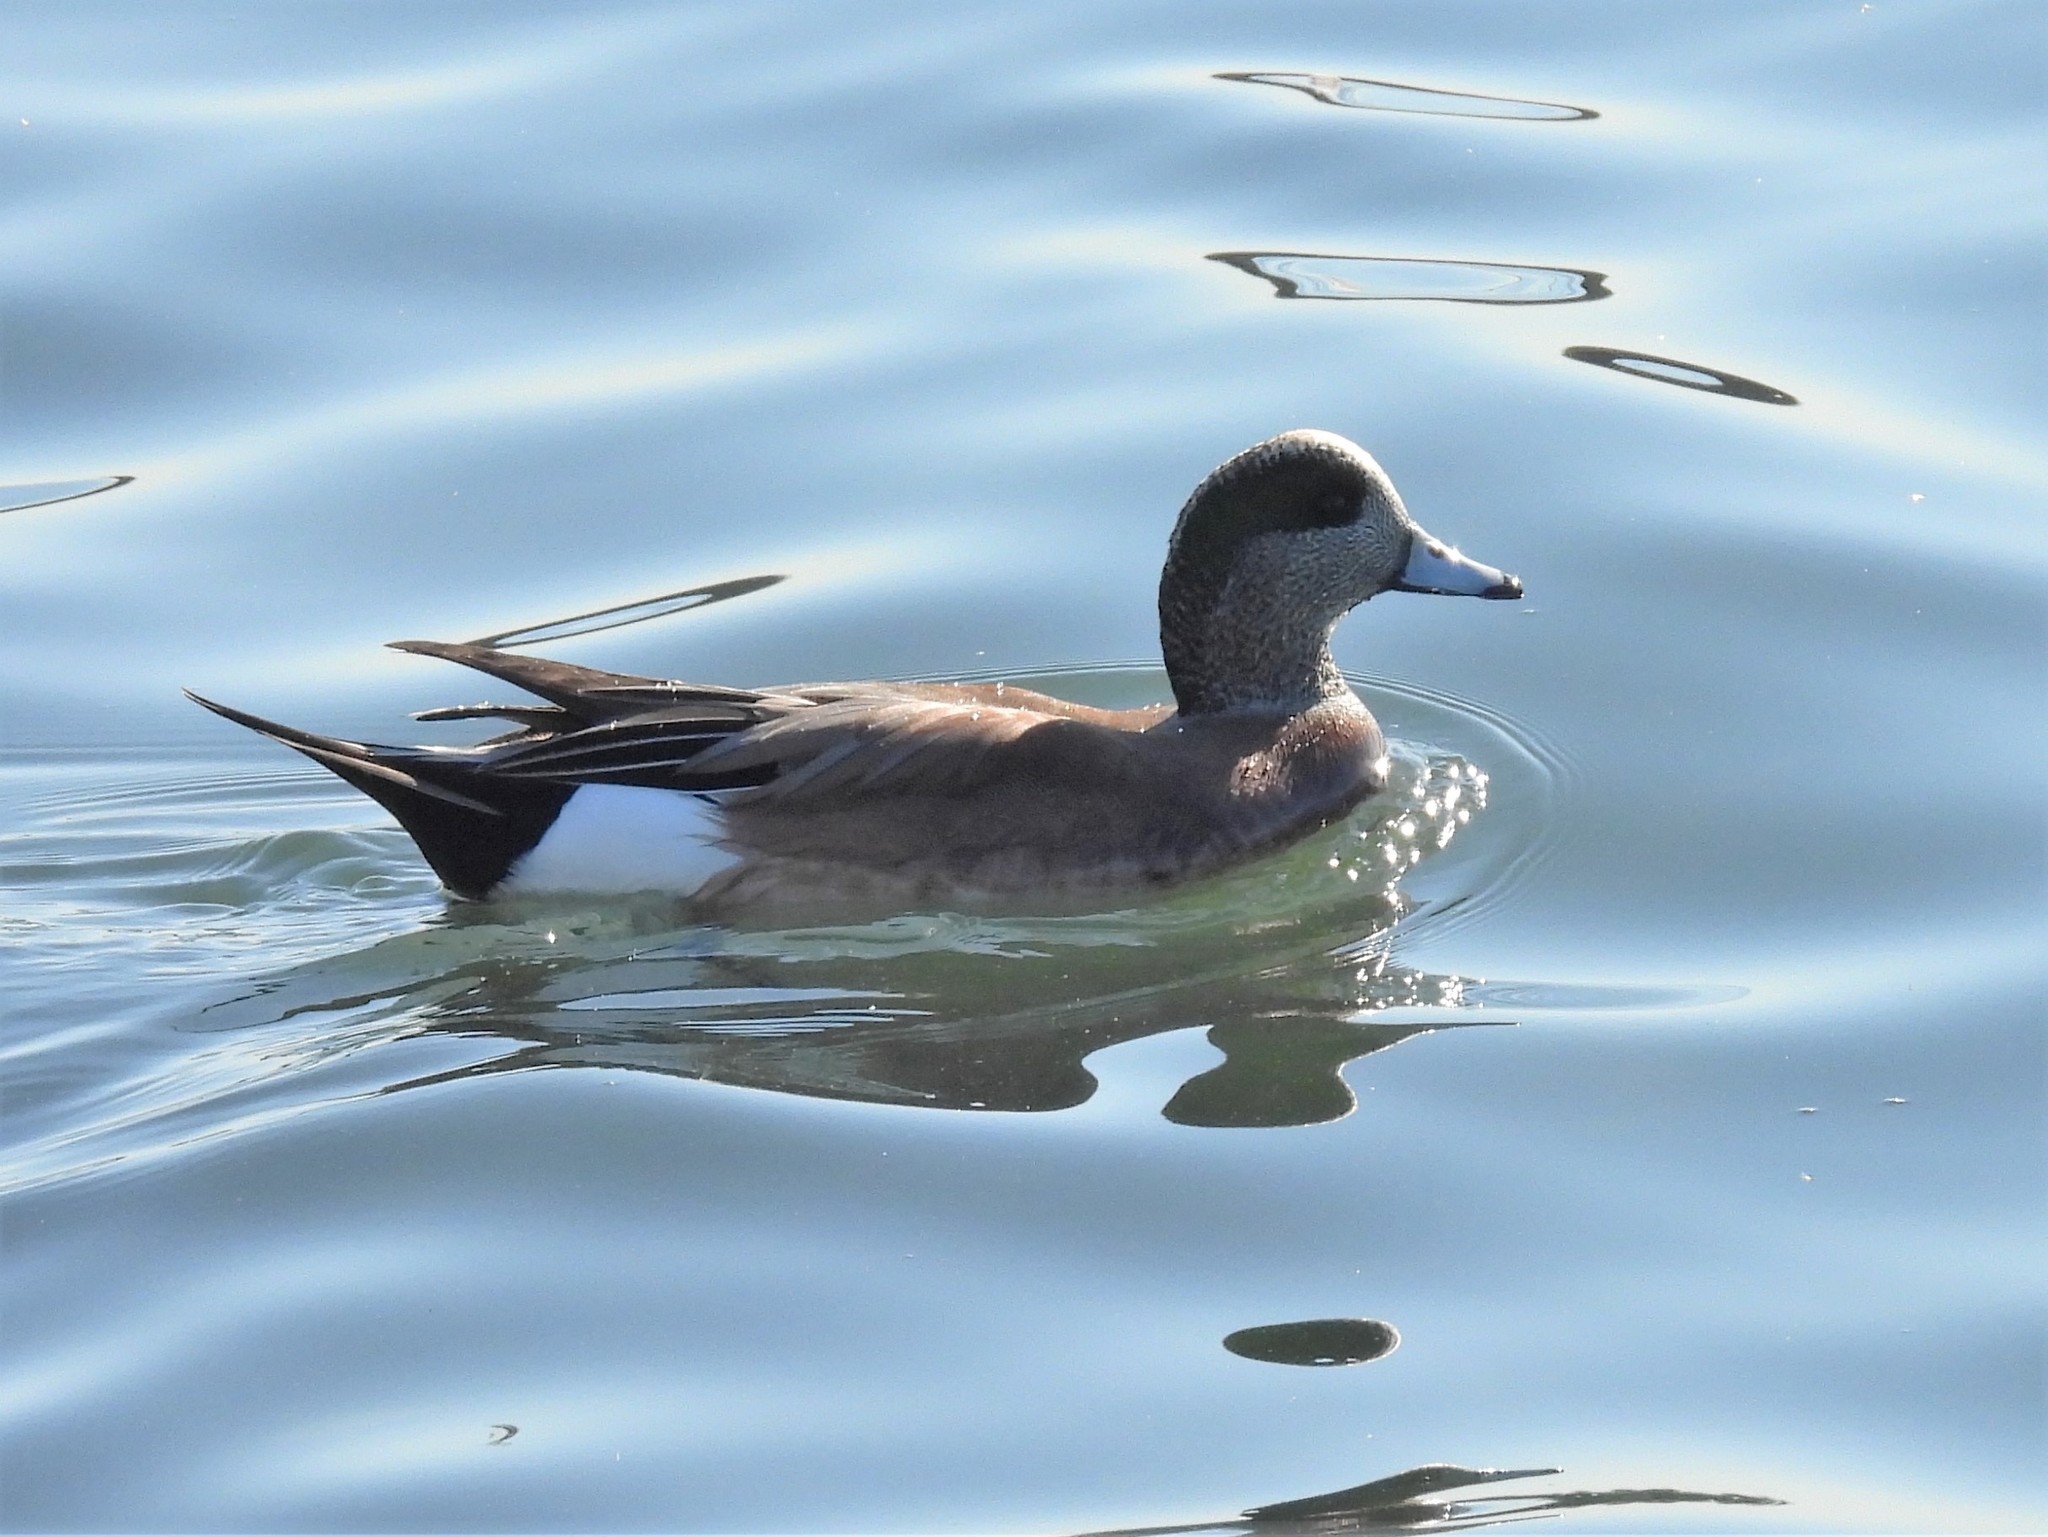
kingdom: Animalia
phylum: Chordata
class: Aves
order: Anseriformes
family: Anatidae
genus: Mareca
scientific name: Mareca americana
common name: American wigeon
